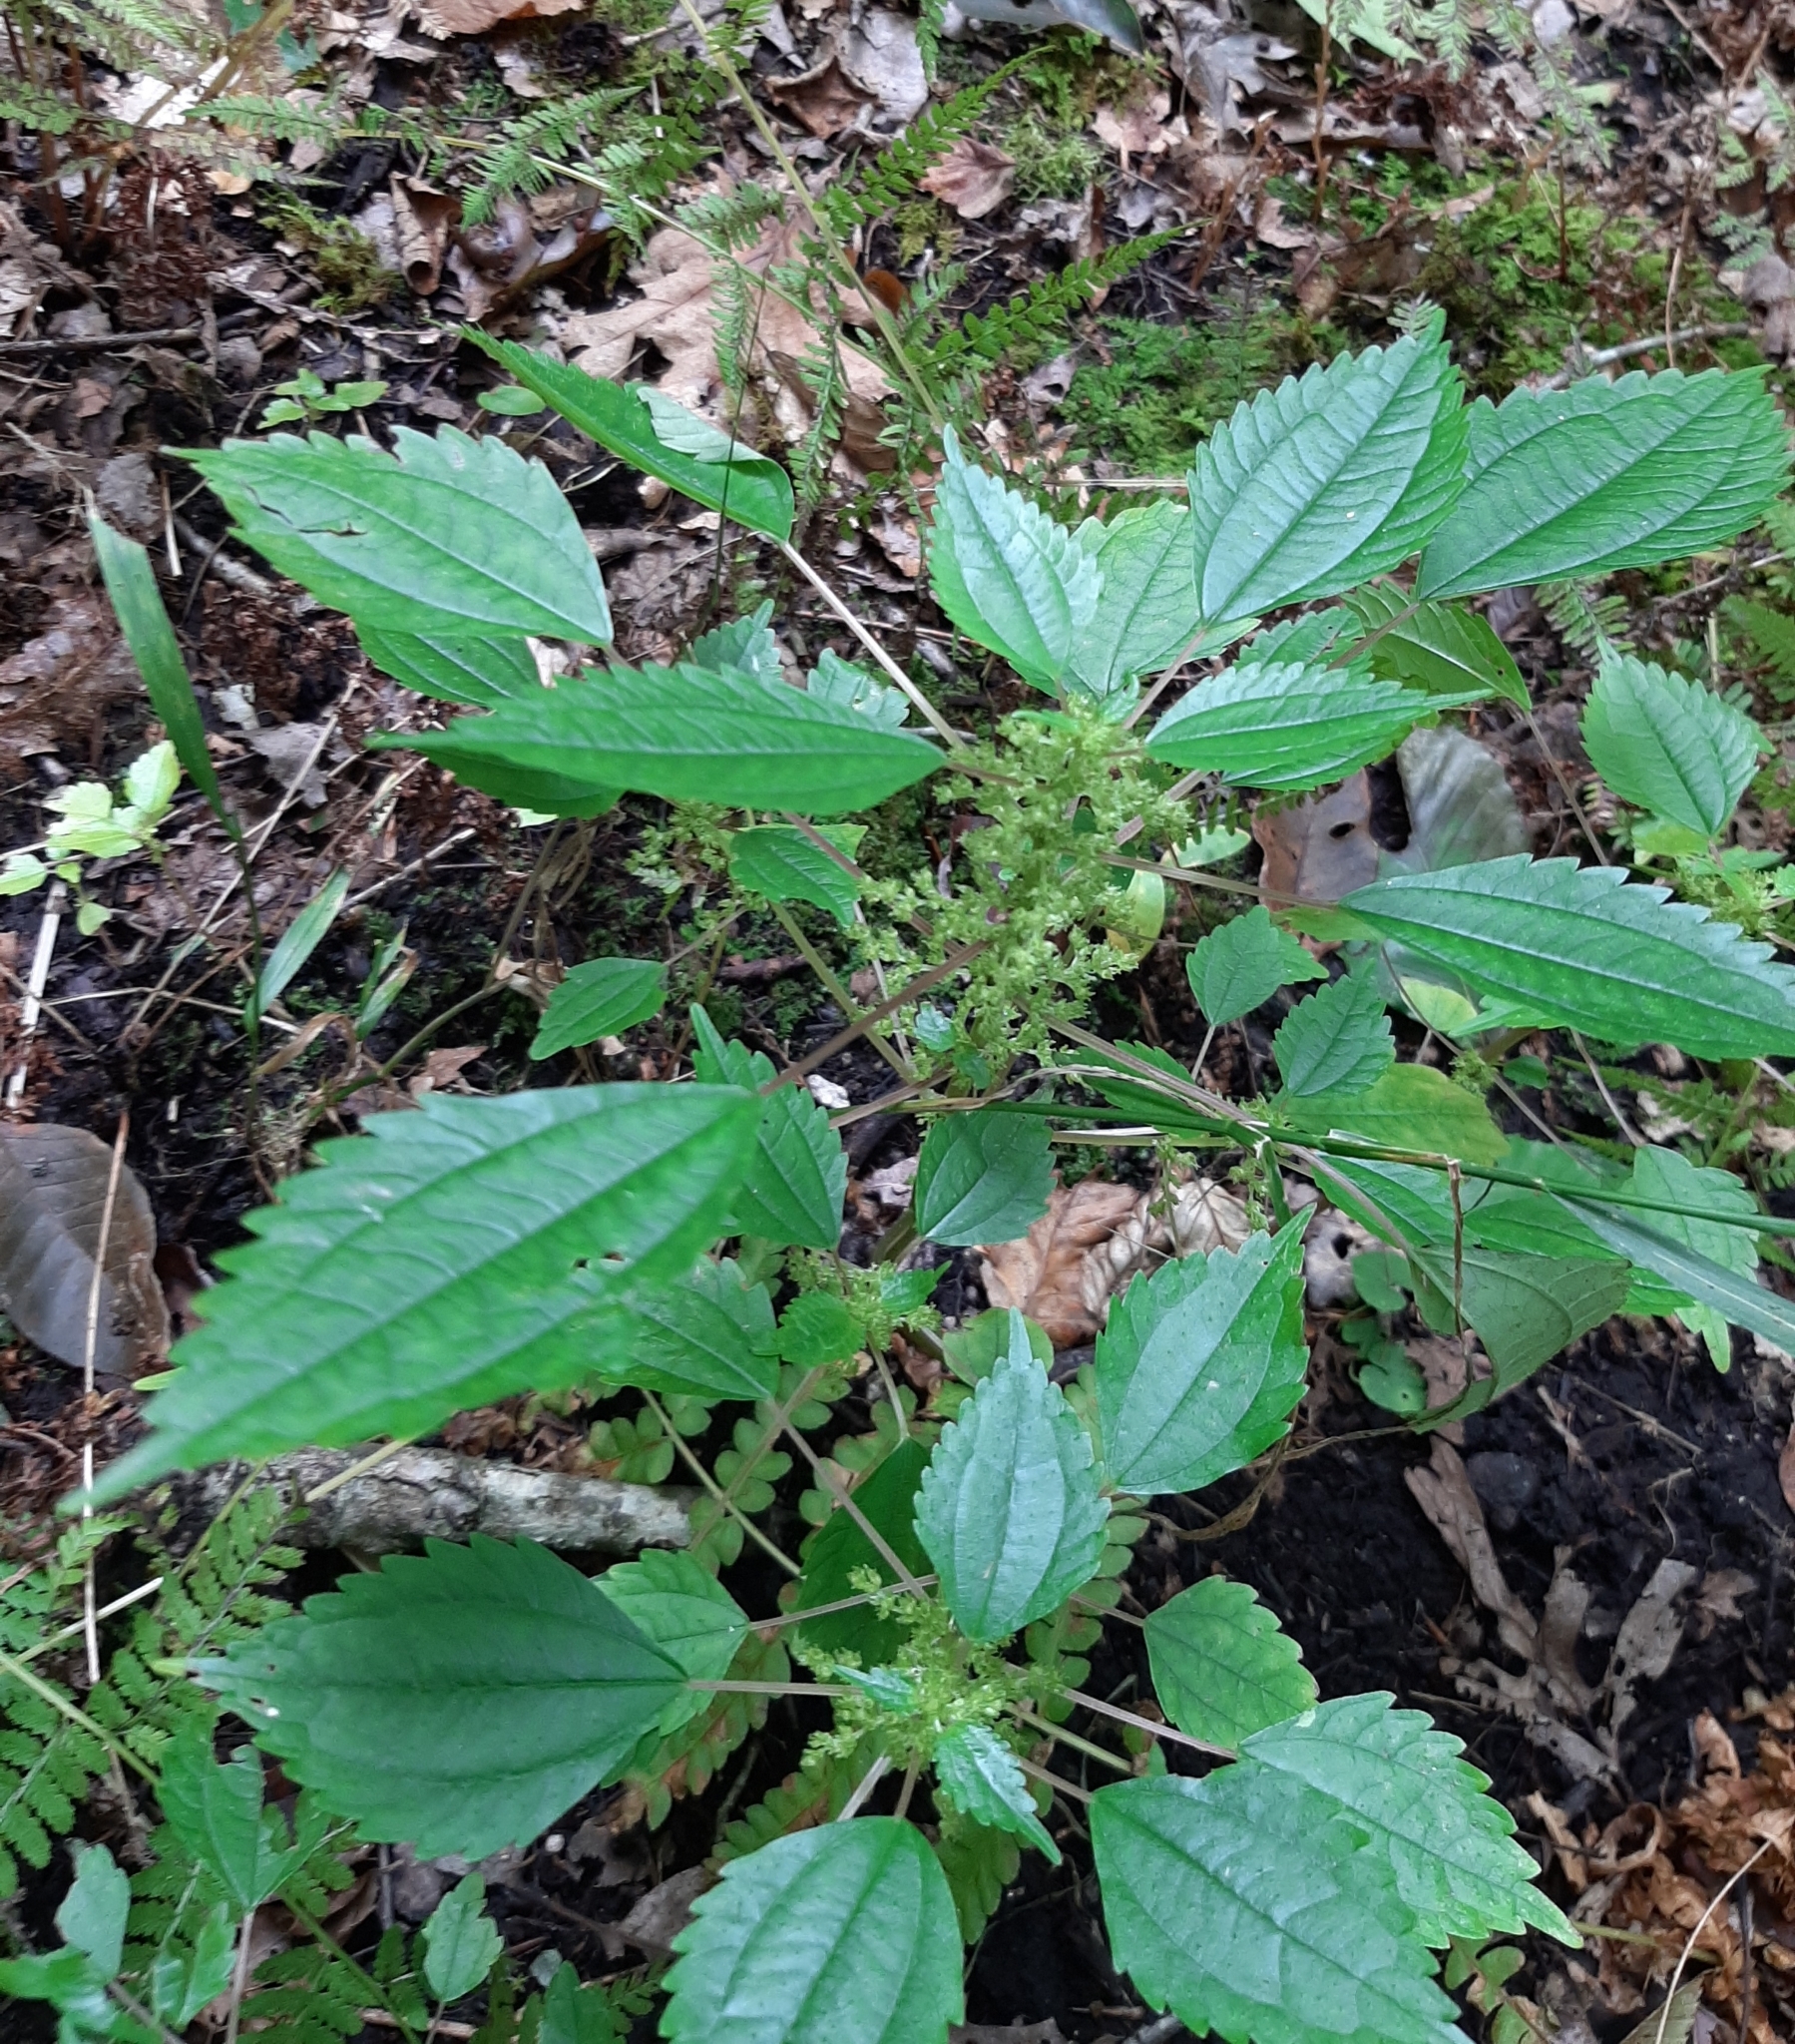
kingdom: Plantae
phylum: Tracheophyta
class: Magnoliopsida
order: Rosales
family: Urticaceae
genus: Pilea
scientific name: Pilea pumila
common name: Clearweed
